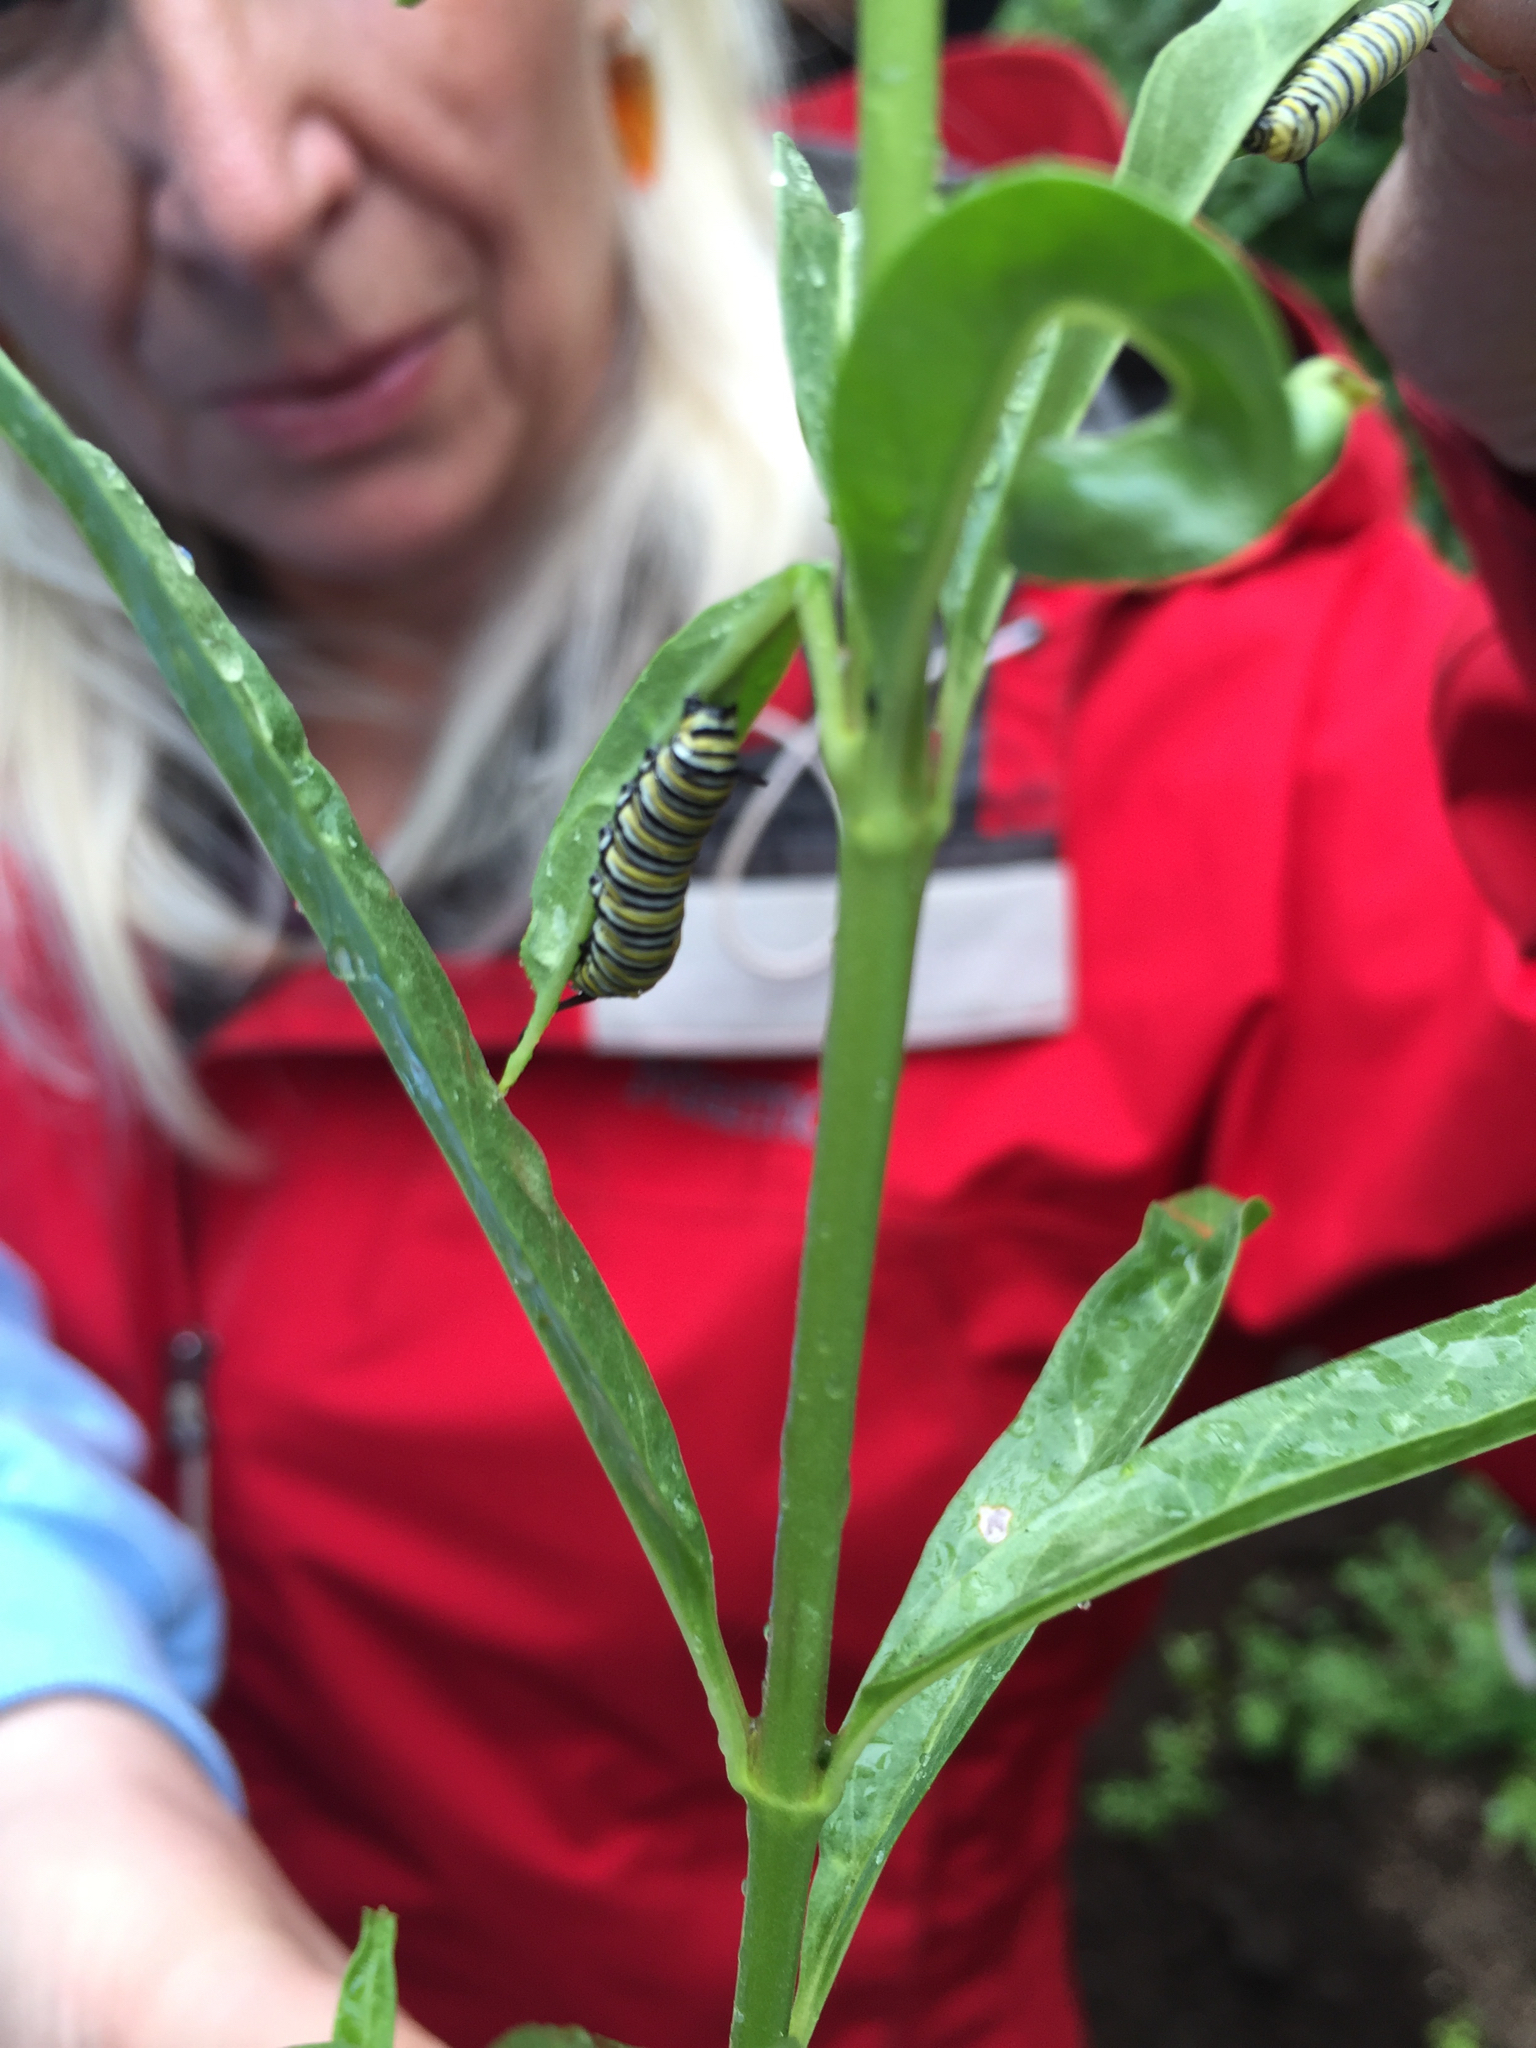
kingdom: Animalia
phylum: Arthropoda
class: Insecta
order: Lepidoptera
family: Nymphalidae
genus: Danaus
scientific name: Danaus plexippus
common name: Monarch
